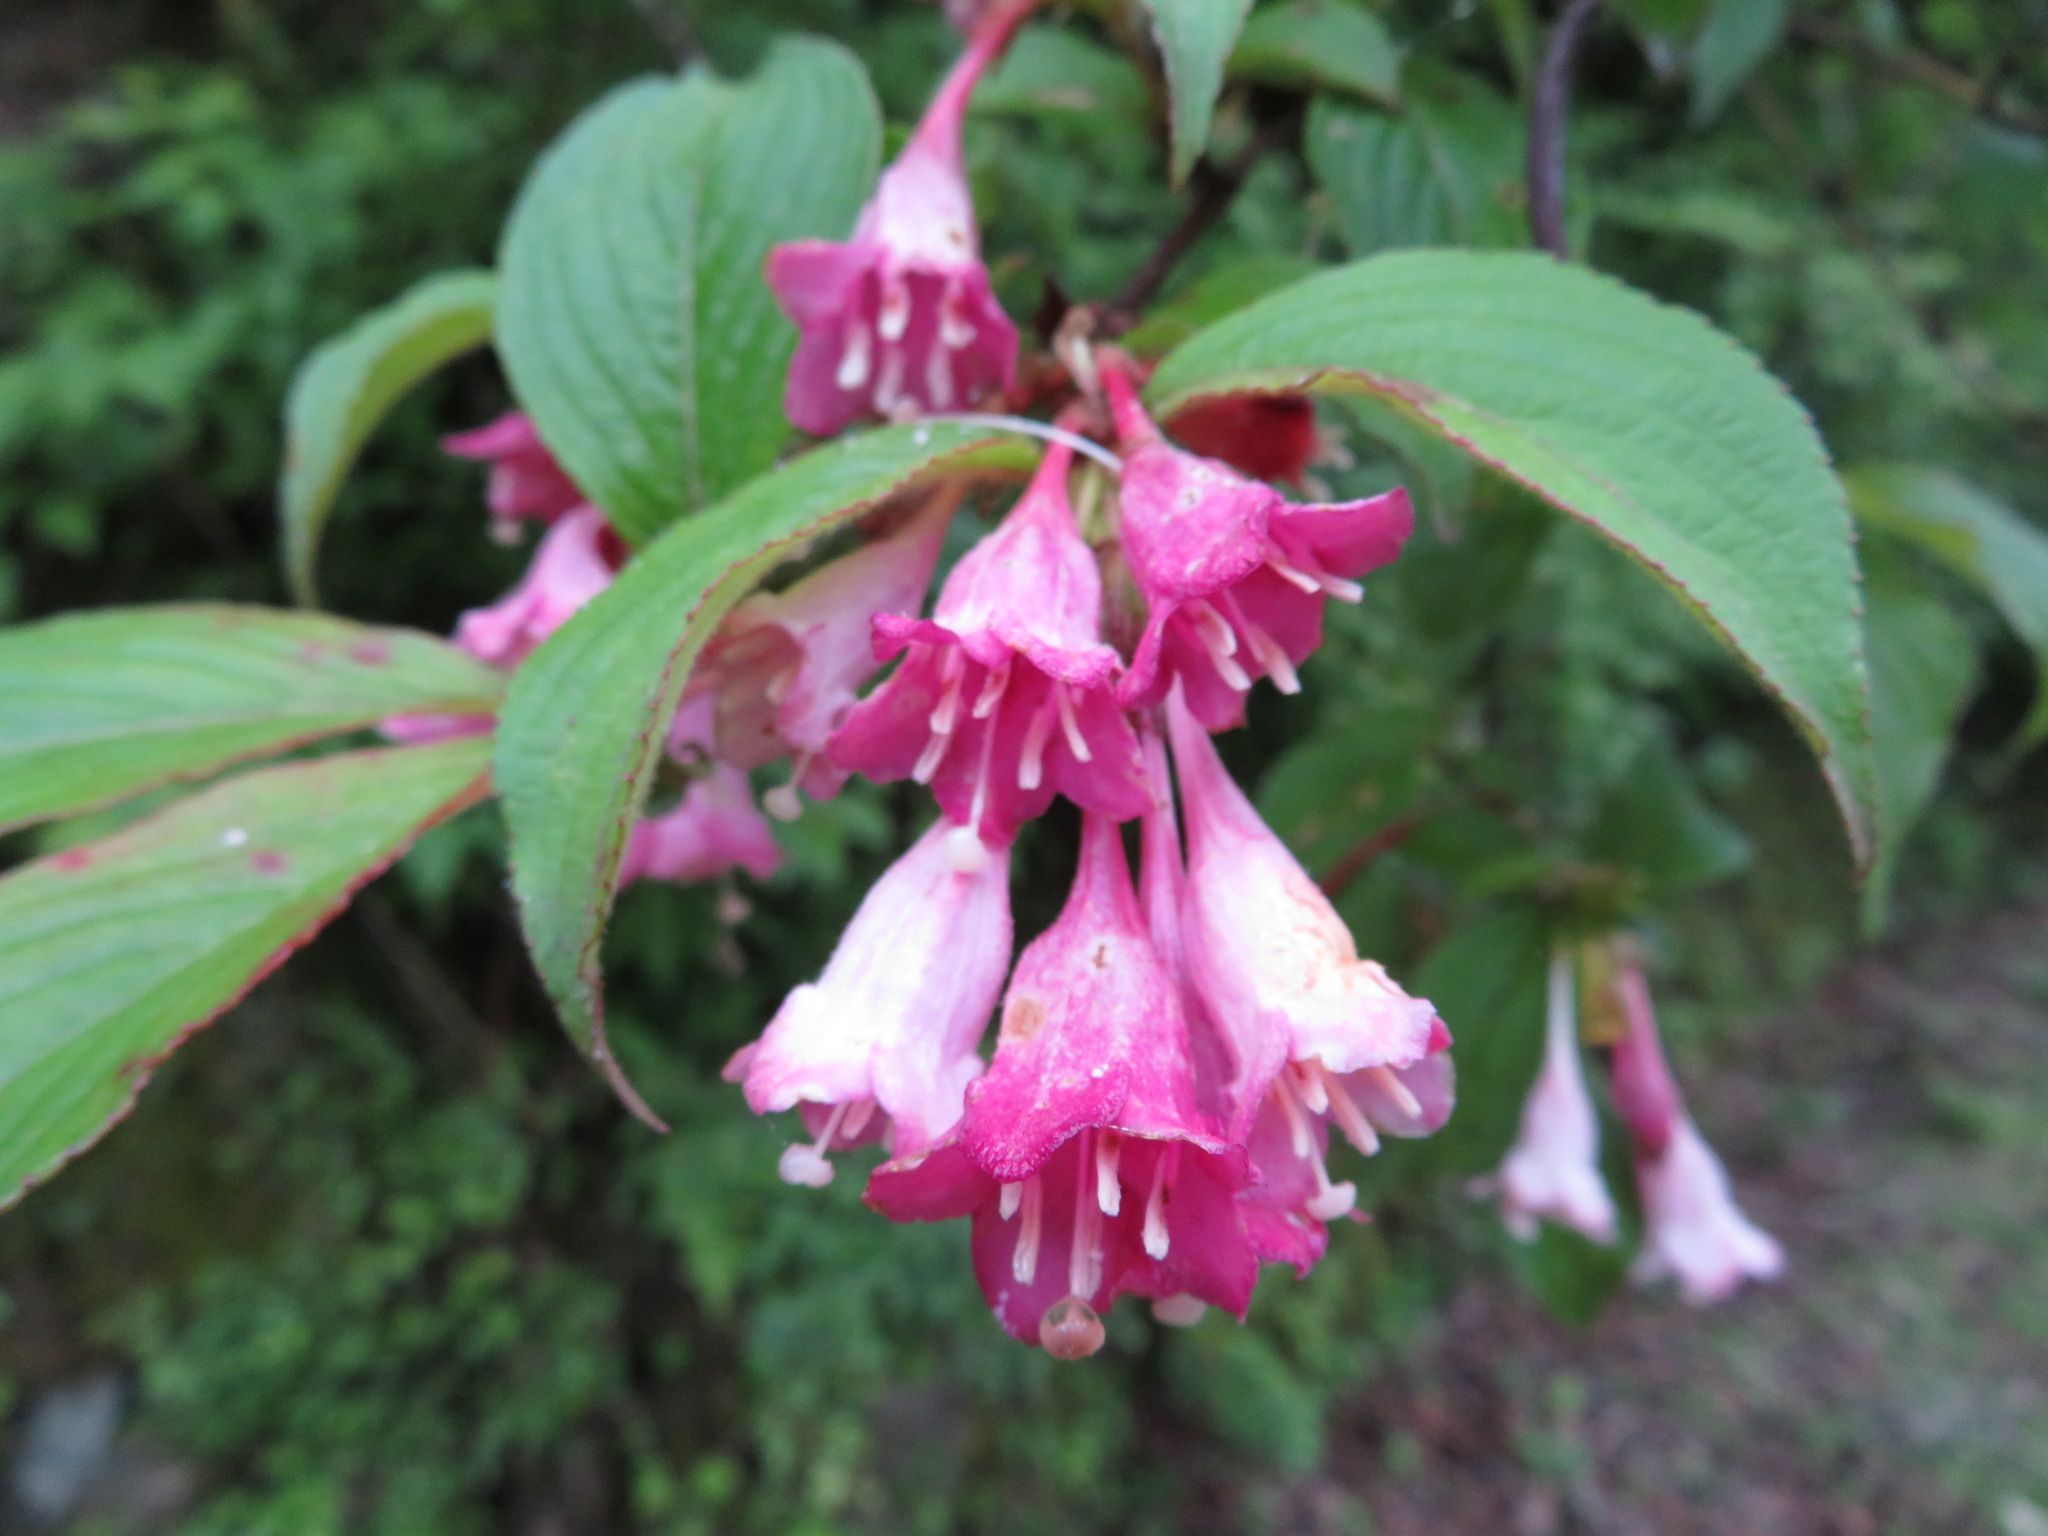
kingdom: Plantae
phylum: Tracheophyta
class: Magnoliopsida
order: Dipsacales
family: Caprifoliaceae
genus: Weigela
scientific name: Weigela hortensis
